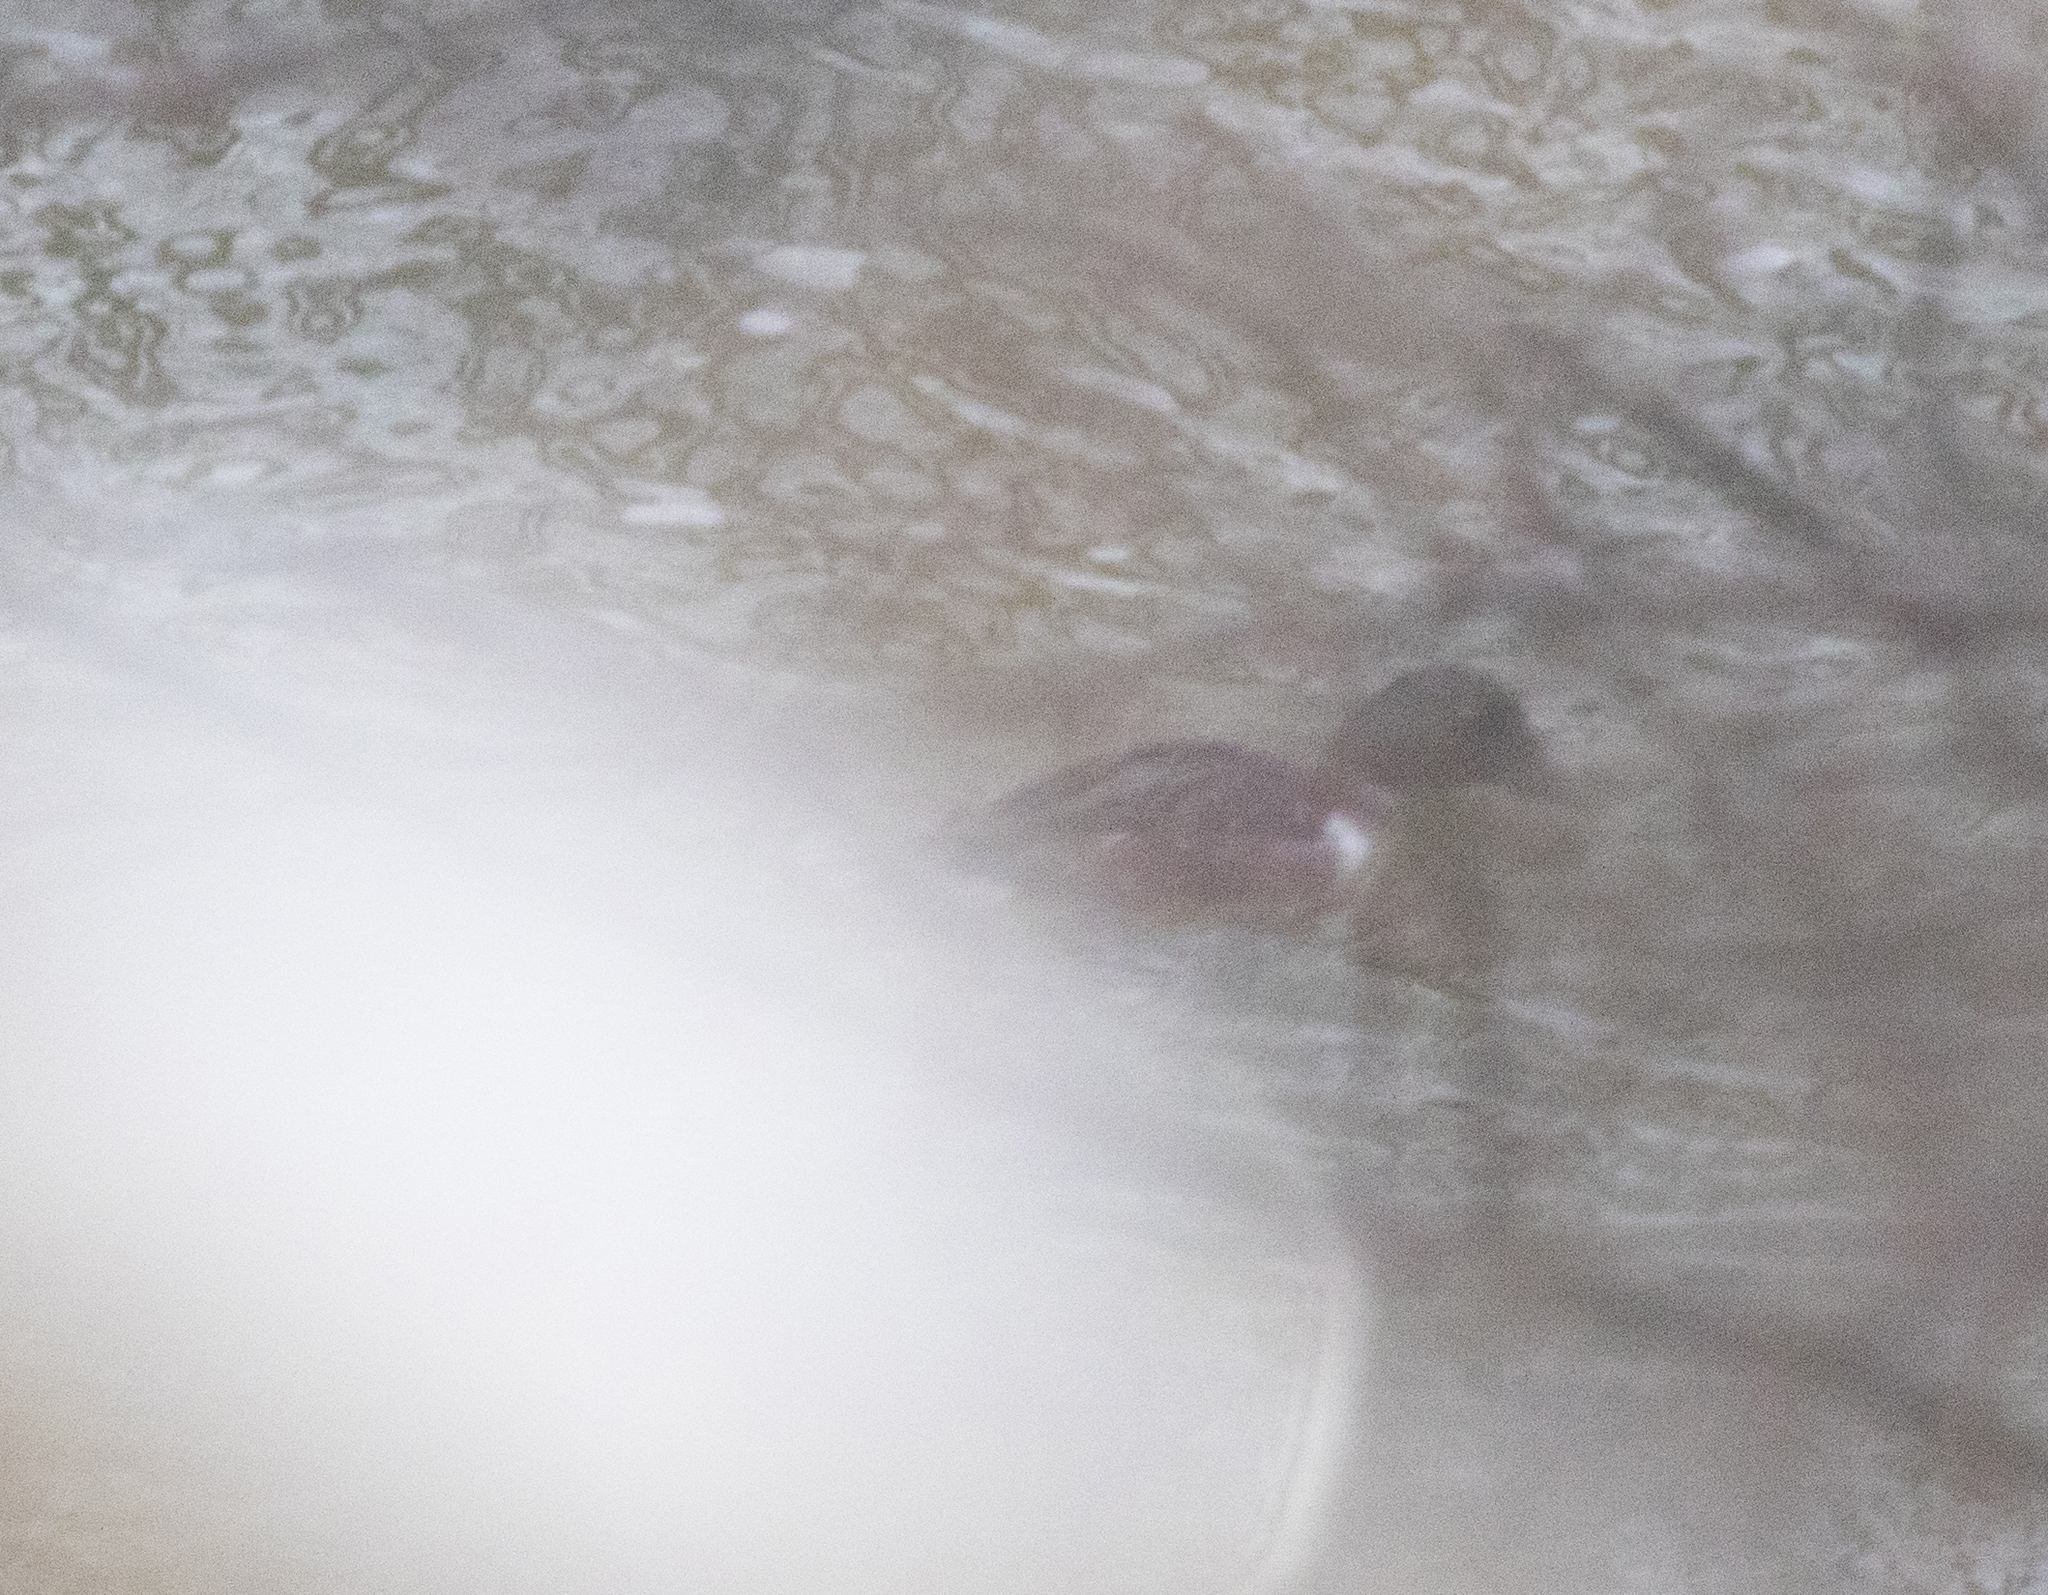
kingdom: Animalia
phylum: Chordata
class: Aves
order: Anseriformes
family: Anatidae
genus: Bucephala
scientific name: Bucephala clangula
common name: Common goldeneye
